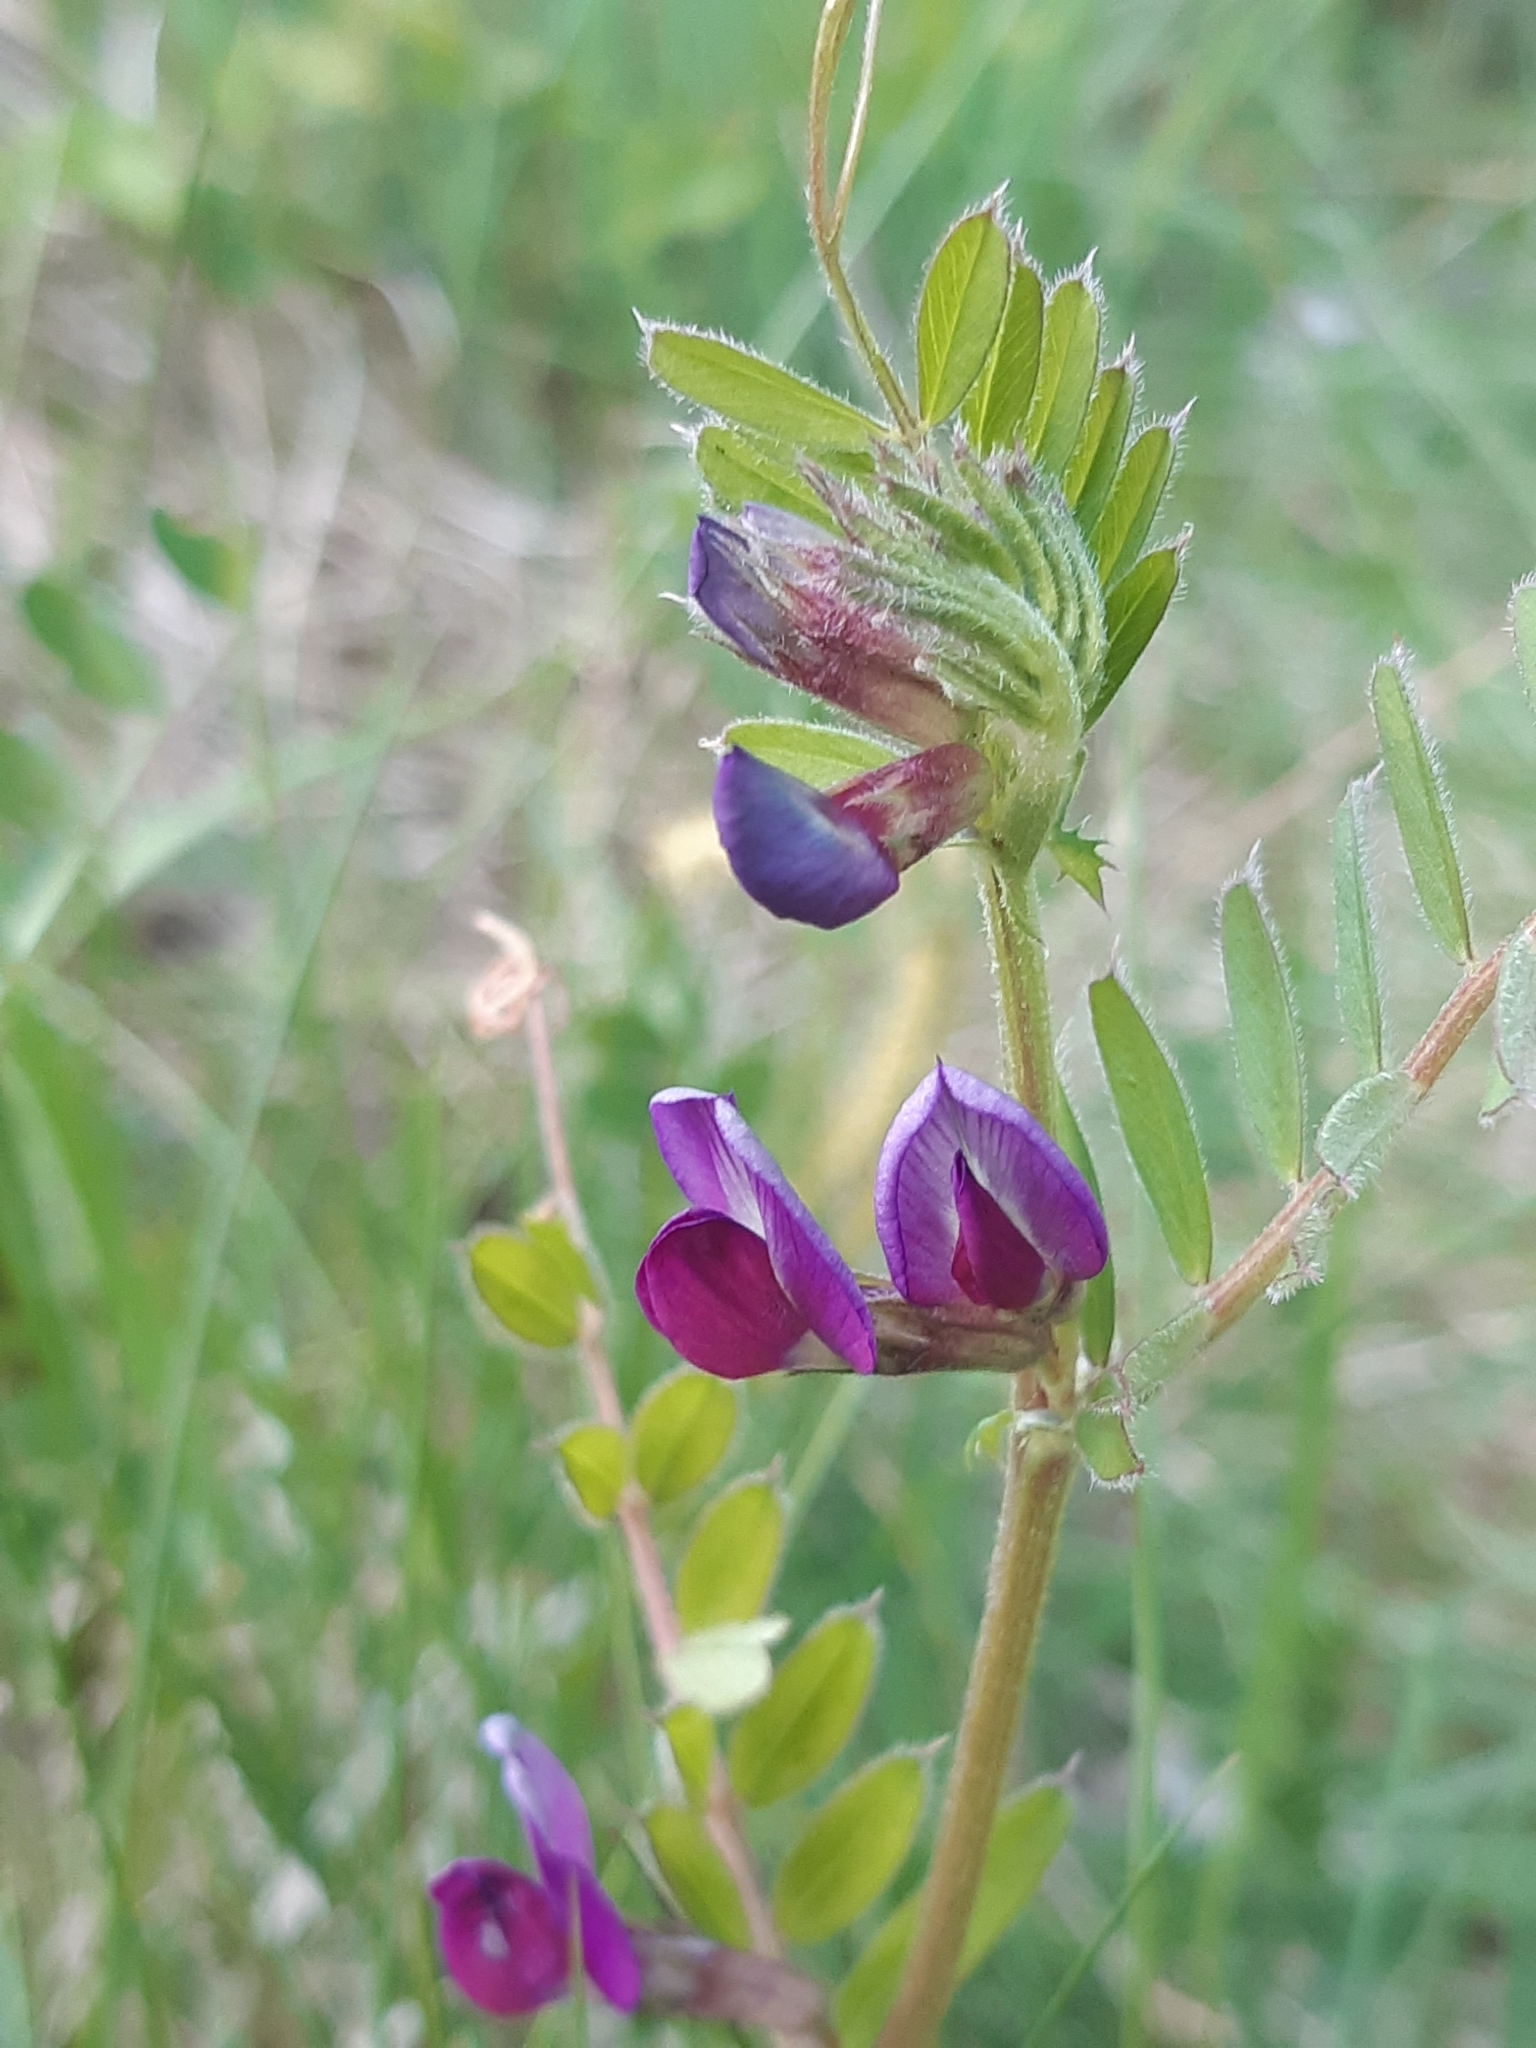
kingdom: Plantae
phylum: Tracheophyta
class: Magnoliopsida
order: Fabales
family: Fabaceae
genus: Vicia
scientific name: Vicia sativa
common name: Garden vetch
